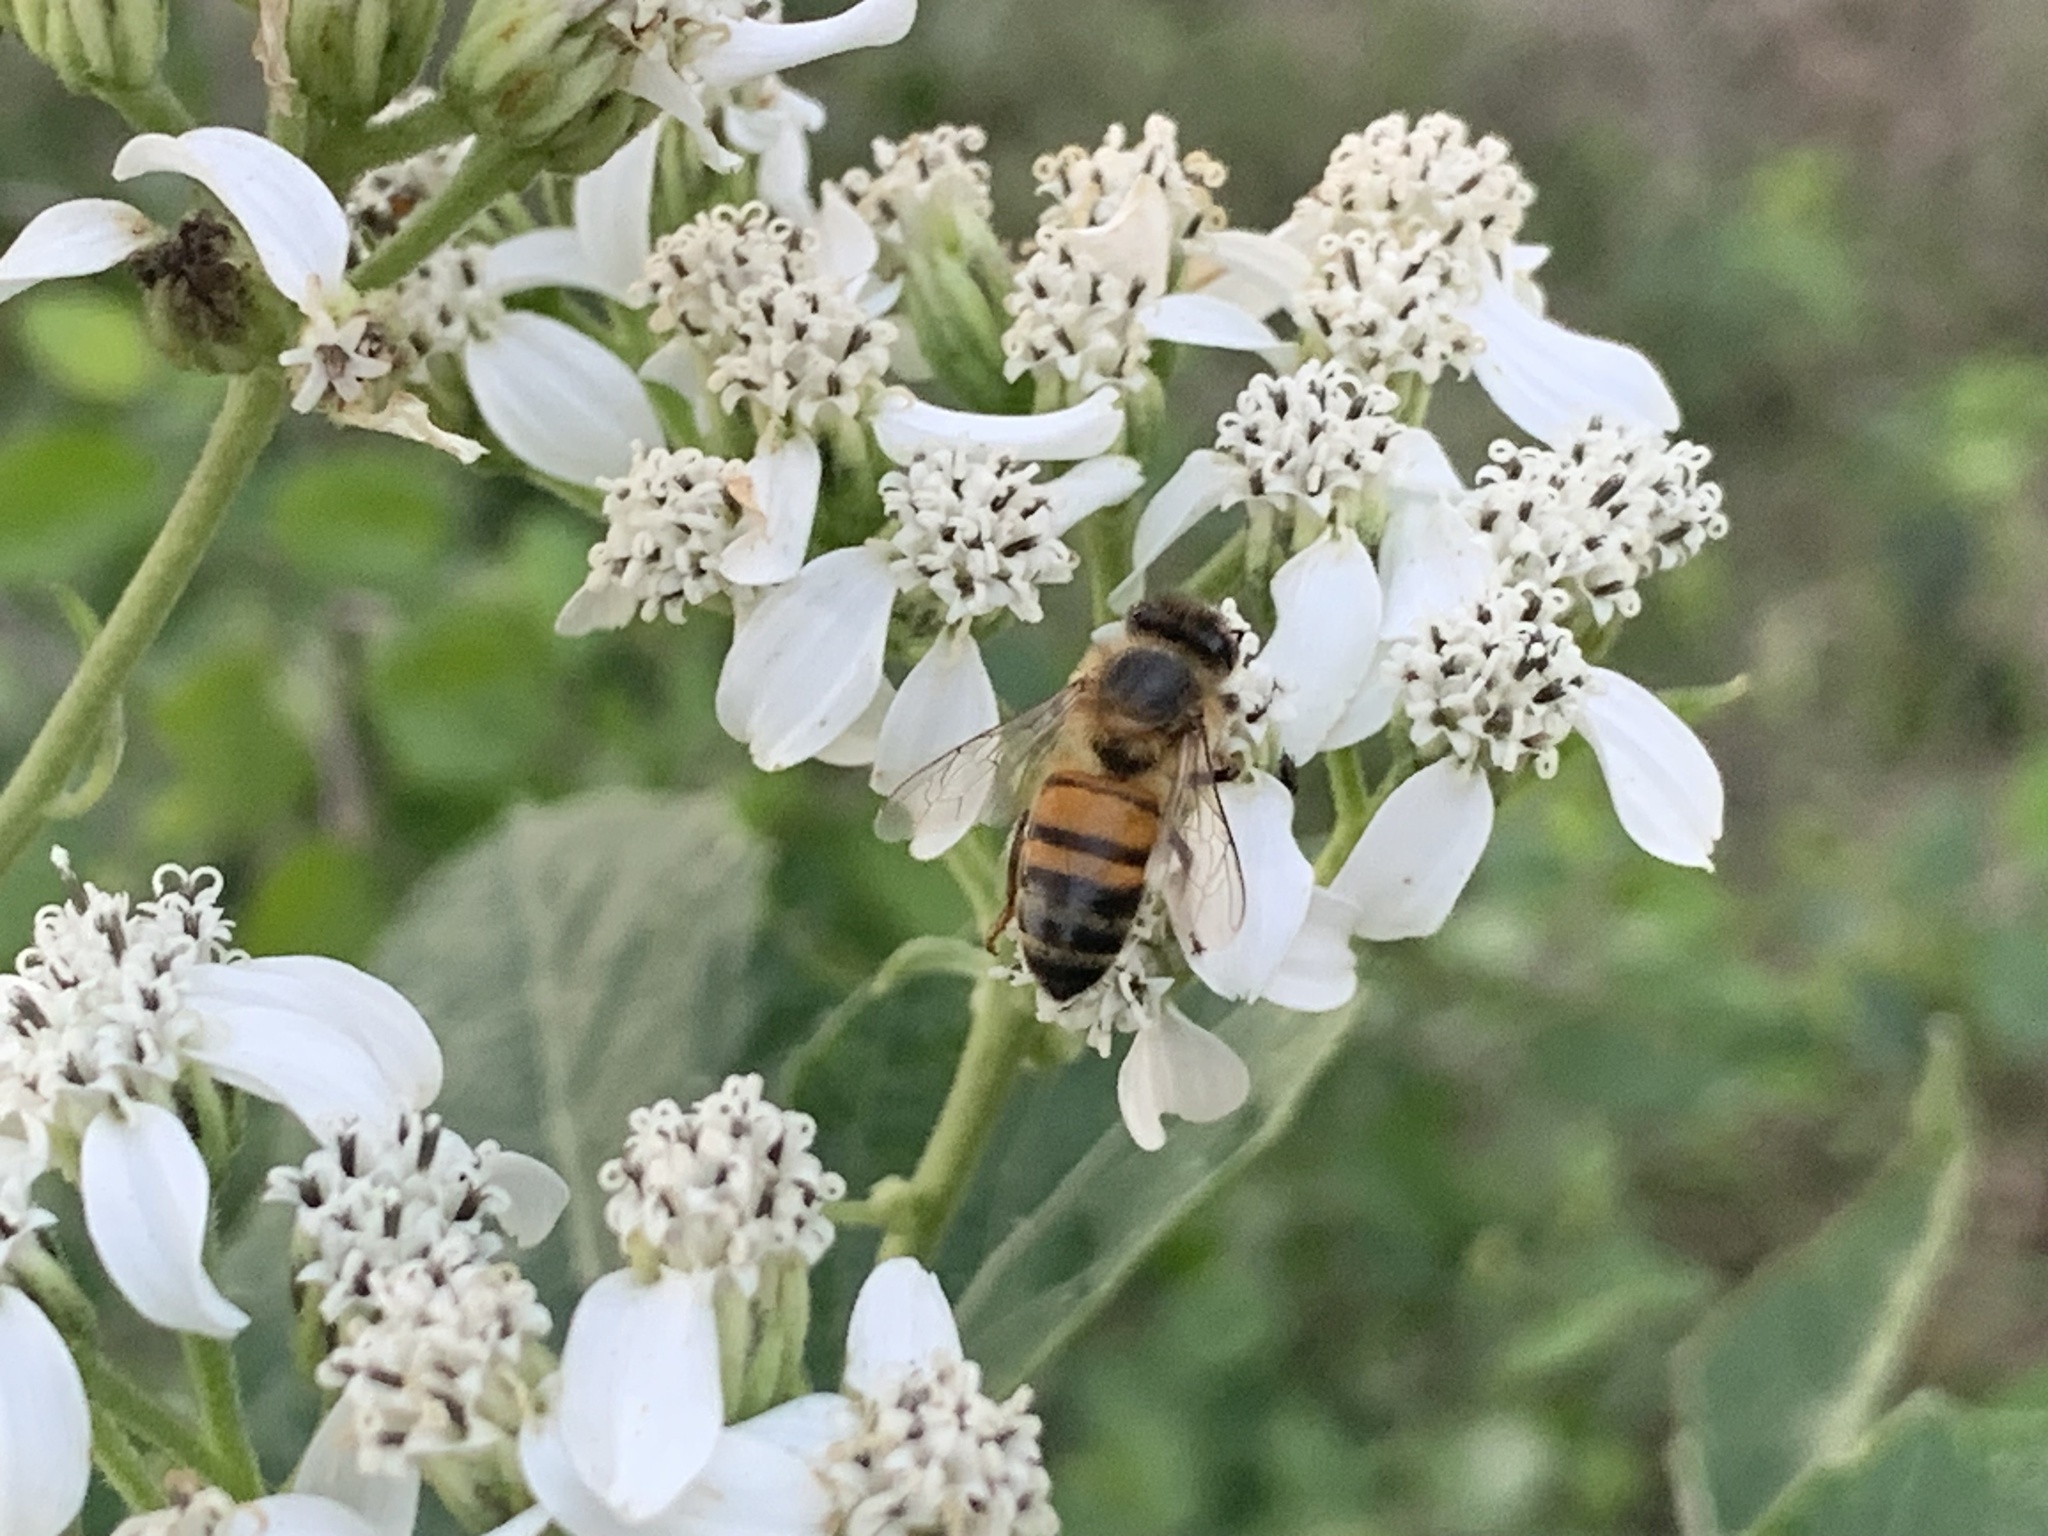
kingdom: Animalia
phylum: Arthropoda
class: Insecta
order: Hymenoptera
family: Apidae
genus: Apis
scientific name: Apis mellifera
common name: Honey bee
